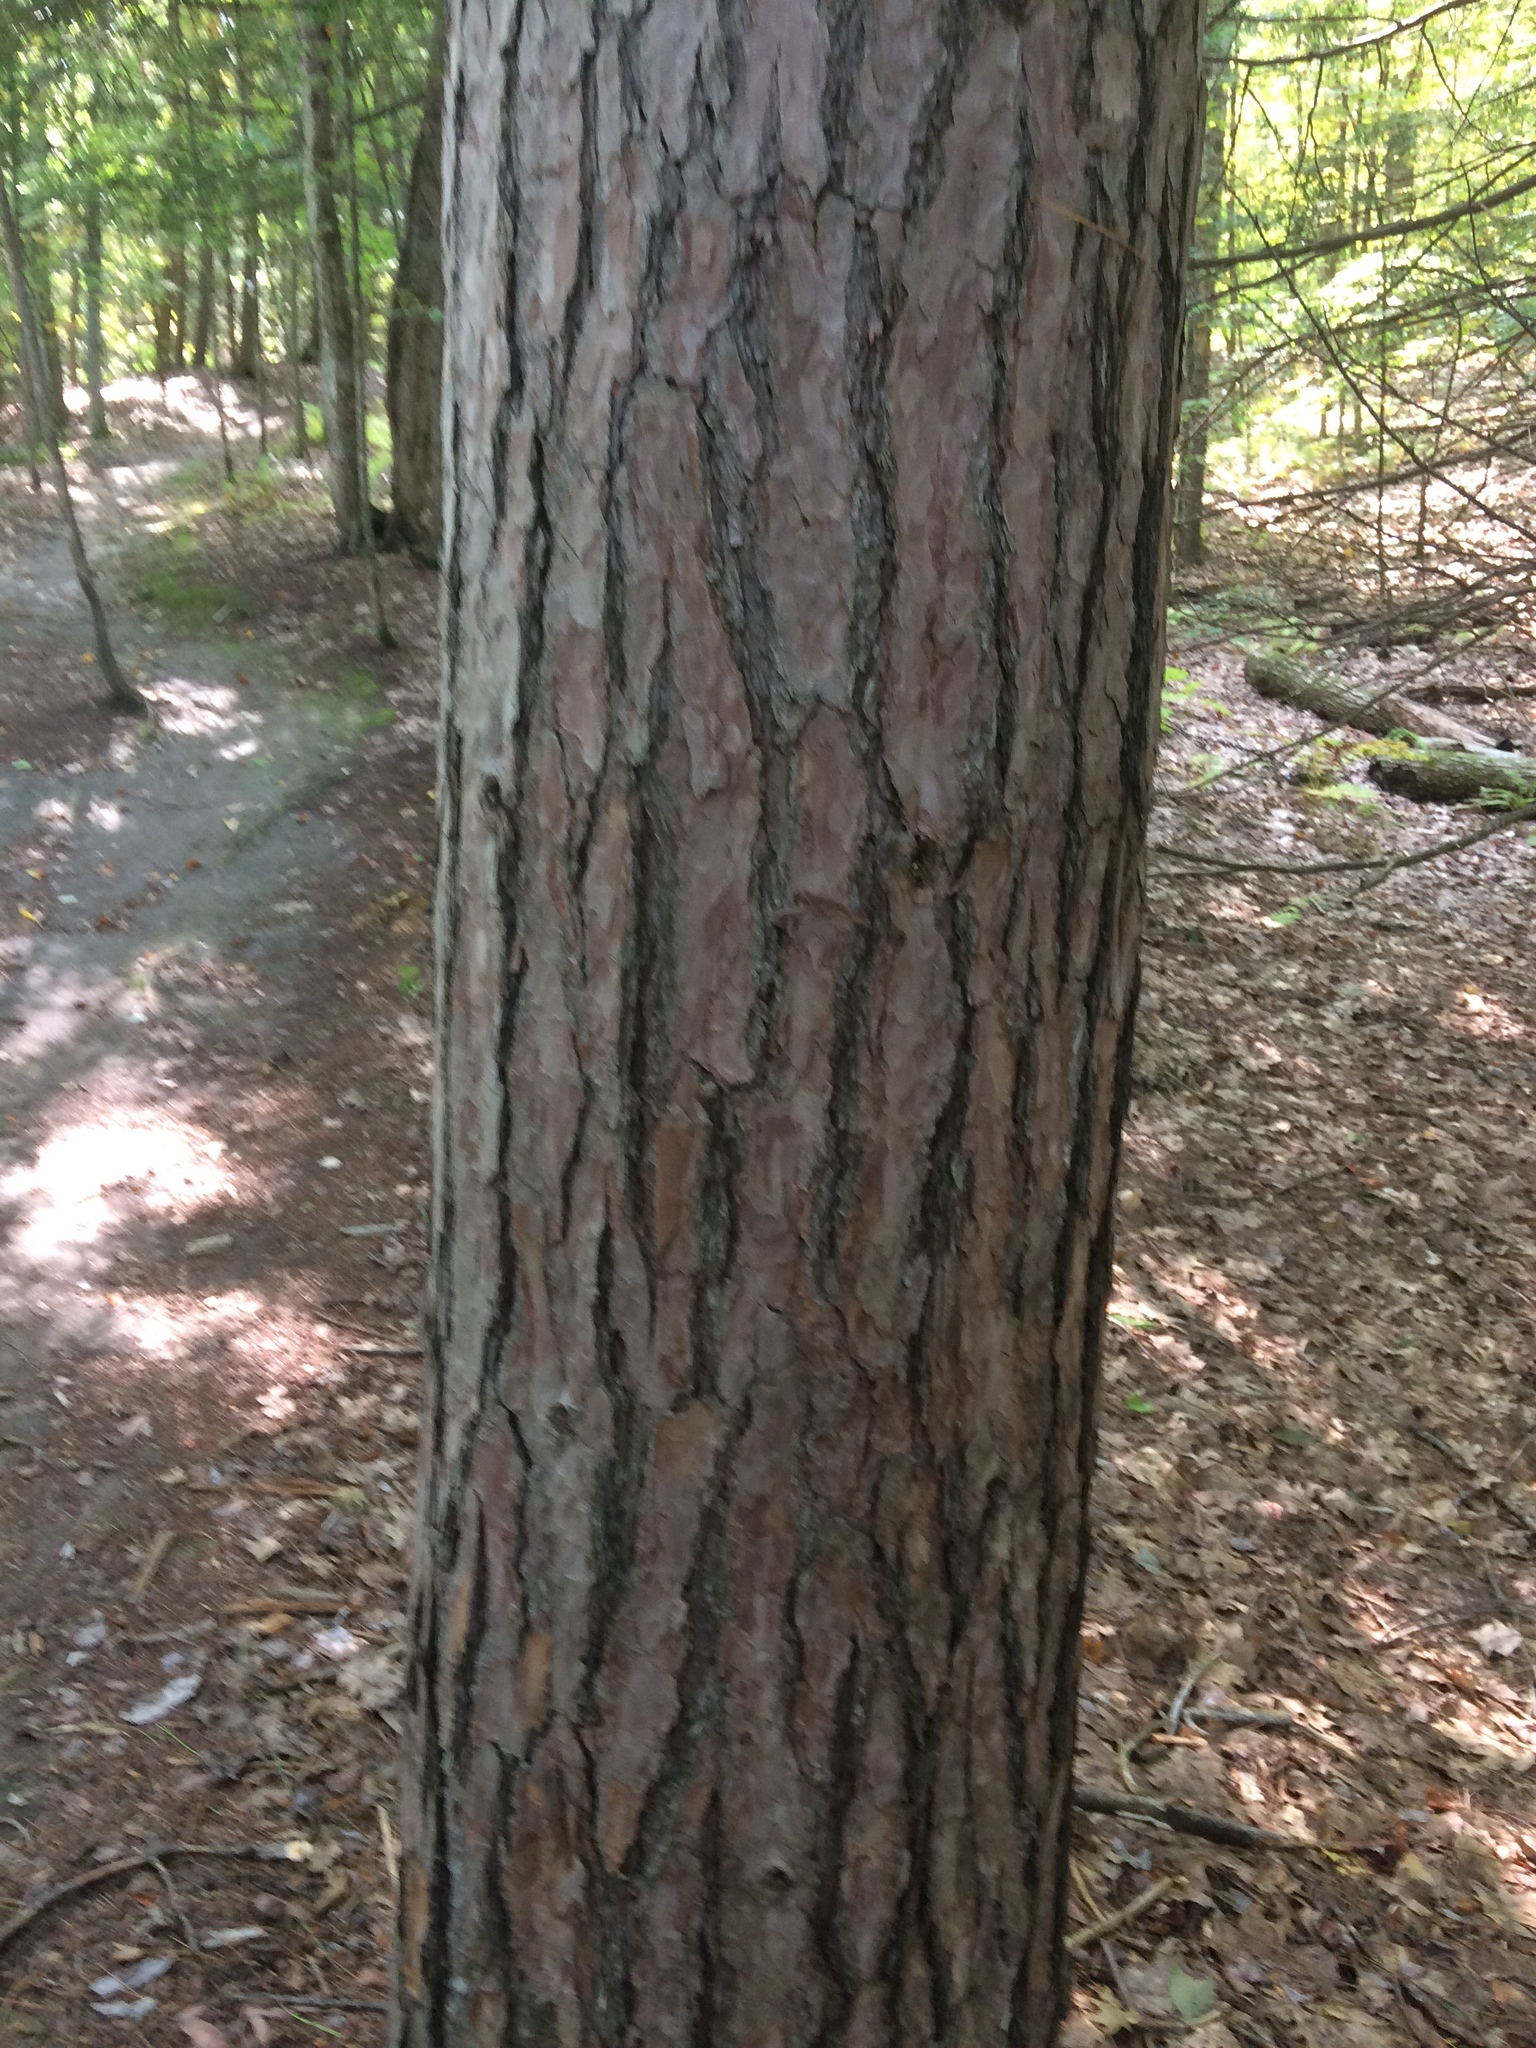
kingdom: Plantae
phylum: Tracheophyta
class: Pinopsida
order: Pinales
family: Pinaceae
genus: Pinus
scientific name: Pinus resinosa
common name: Norway pine
